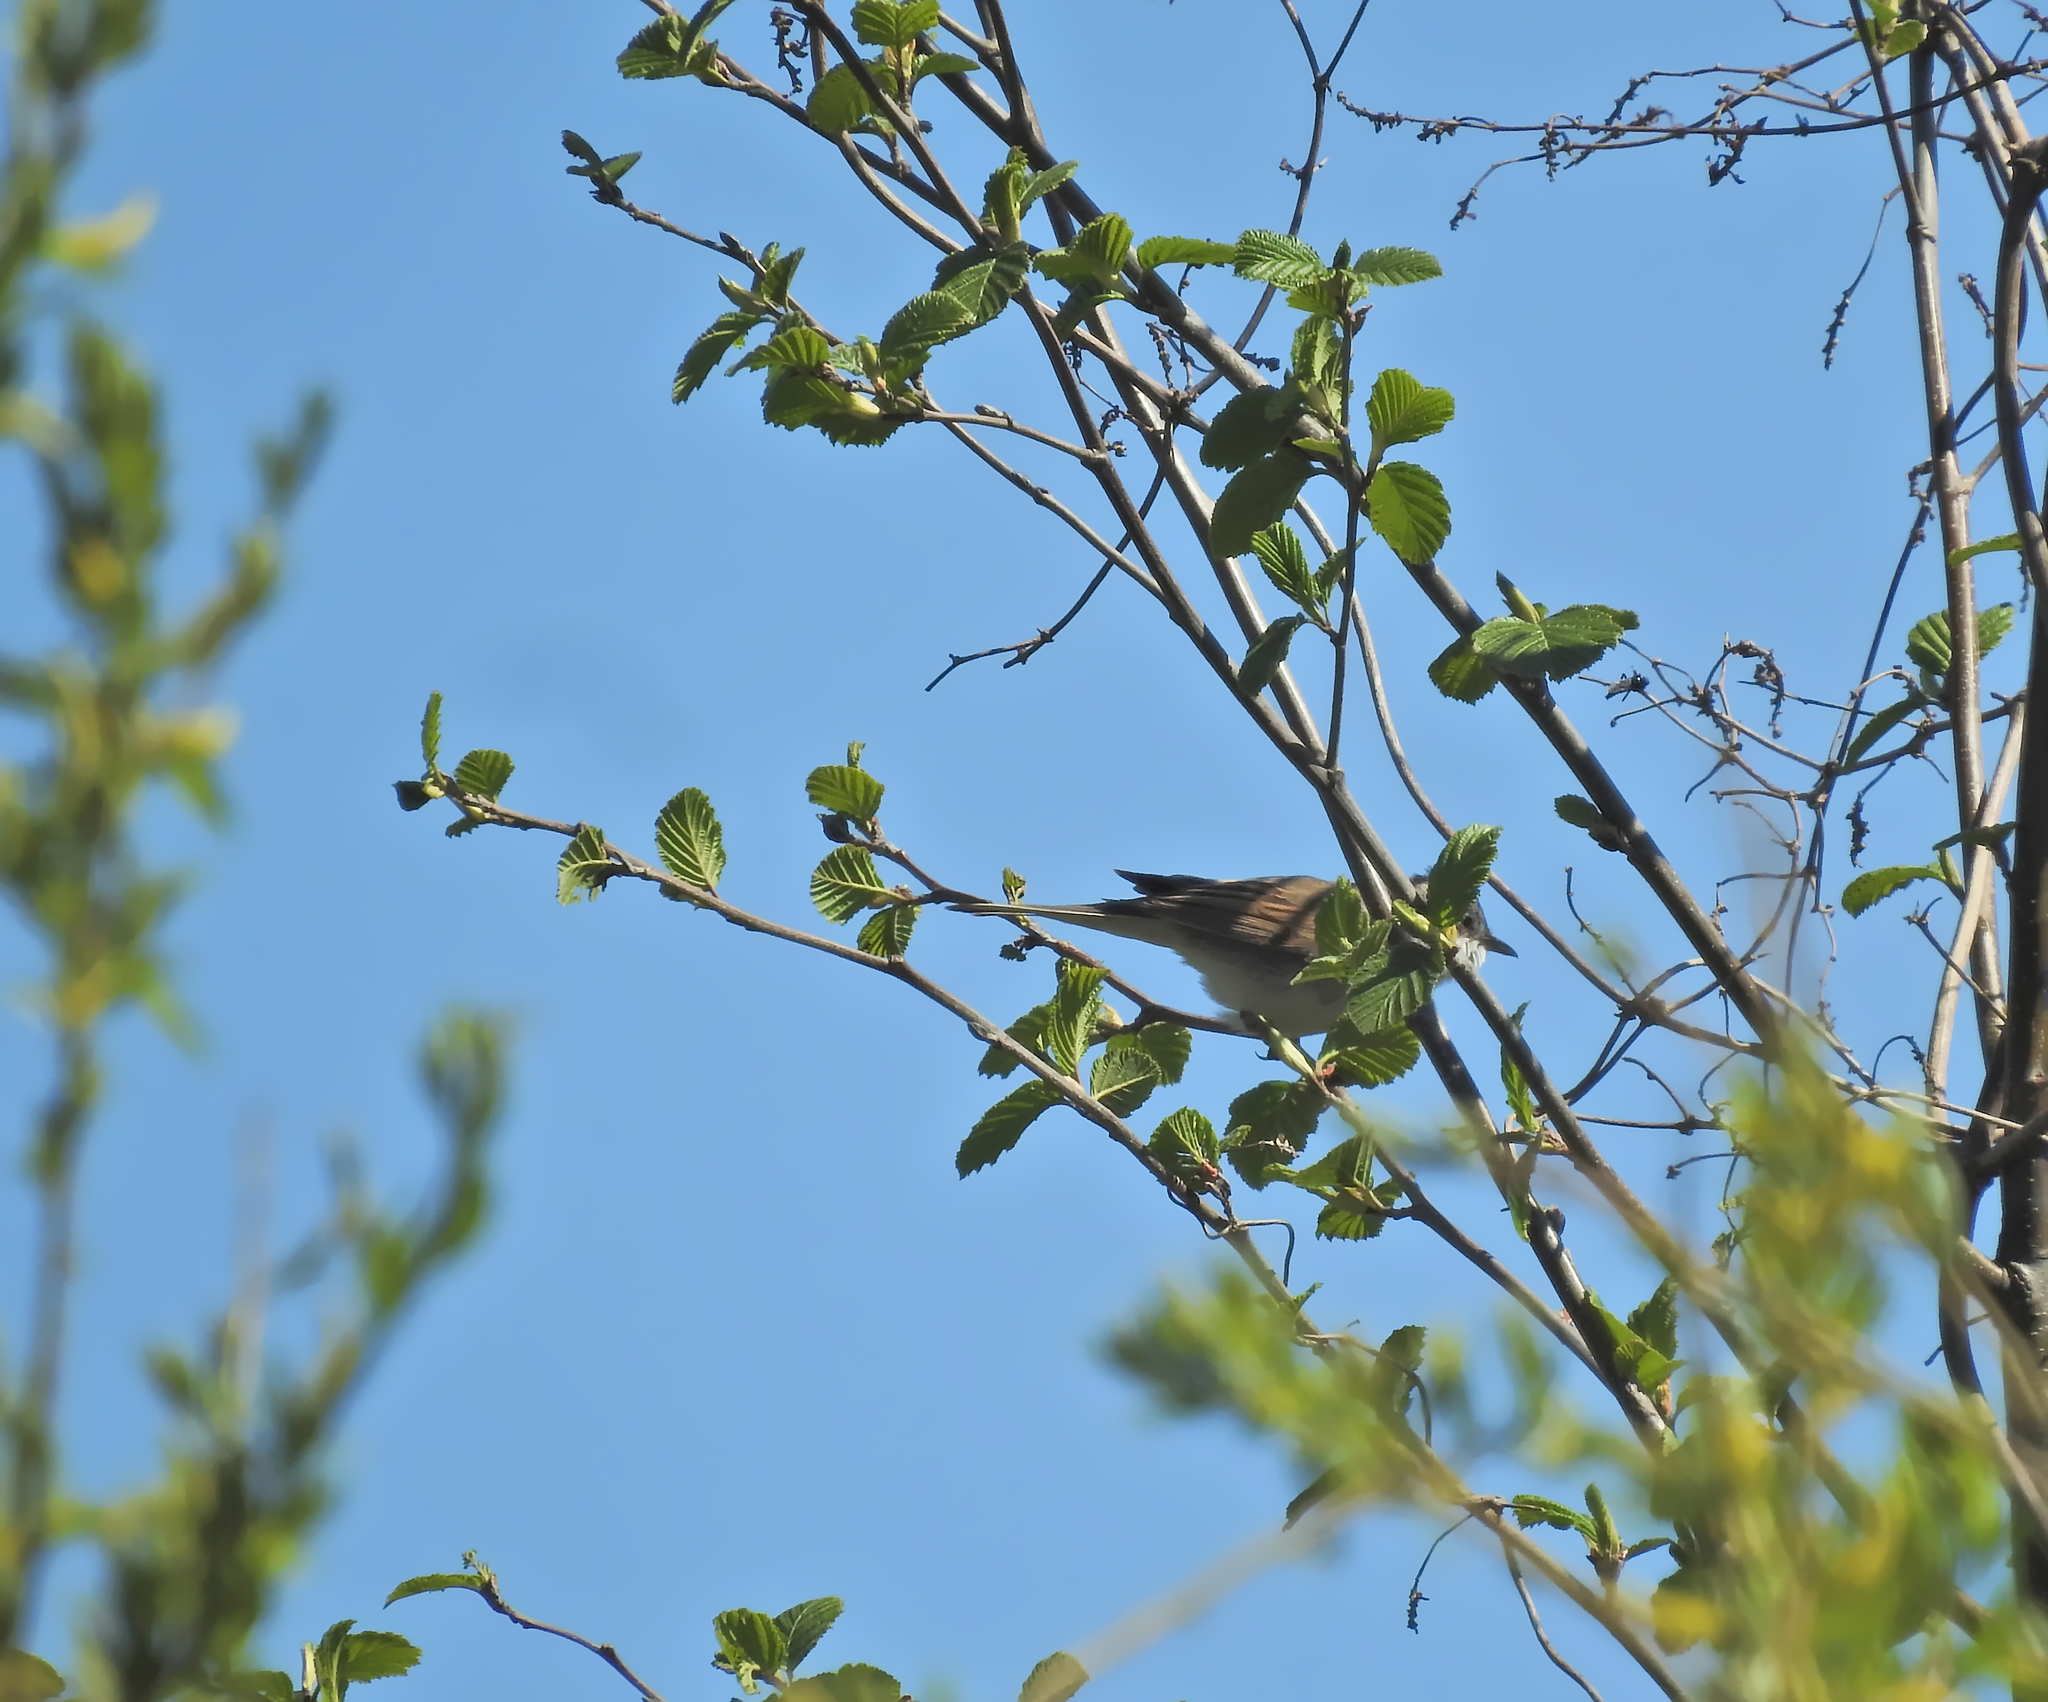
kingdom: Animalia
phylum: Chordata
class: Aves
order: Passeriformes
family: Sylviidae
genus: Sylvia
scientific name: Sylvia communis
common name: Common whitethroat
